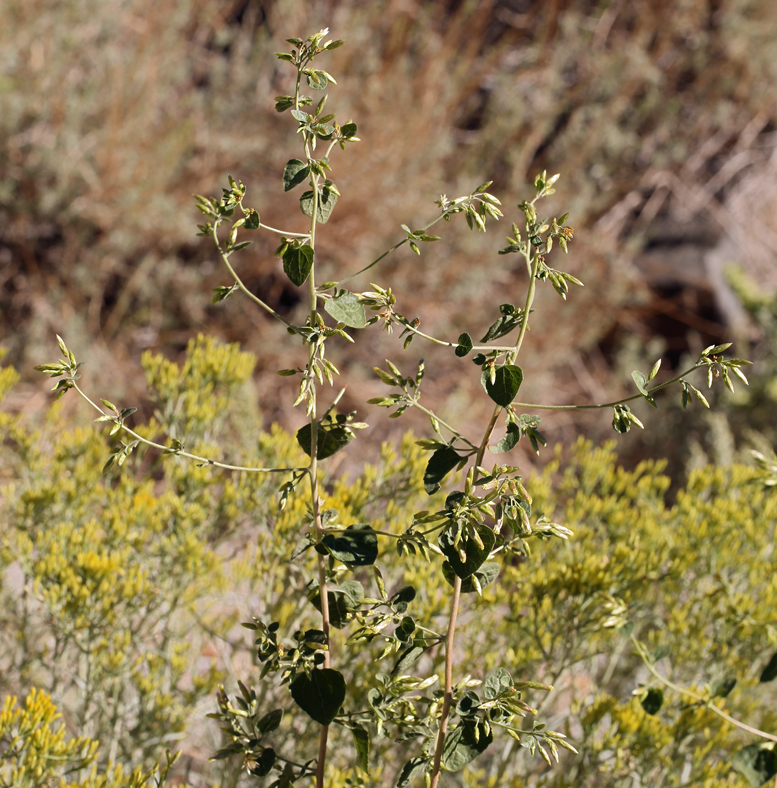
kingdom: Plantae
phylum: Tracheophyta
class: Magnoliopsida
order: Asterales
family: Asteraceae
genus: Brickellia
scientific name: Brickellia californica
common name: California brickellbush
